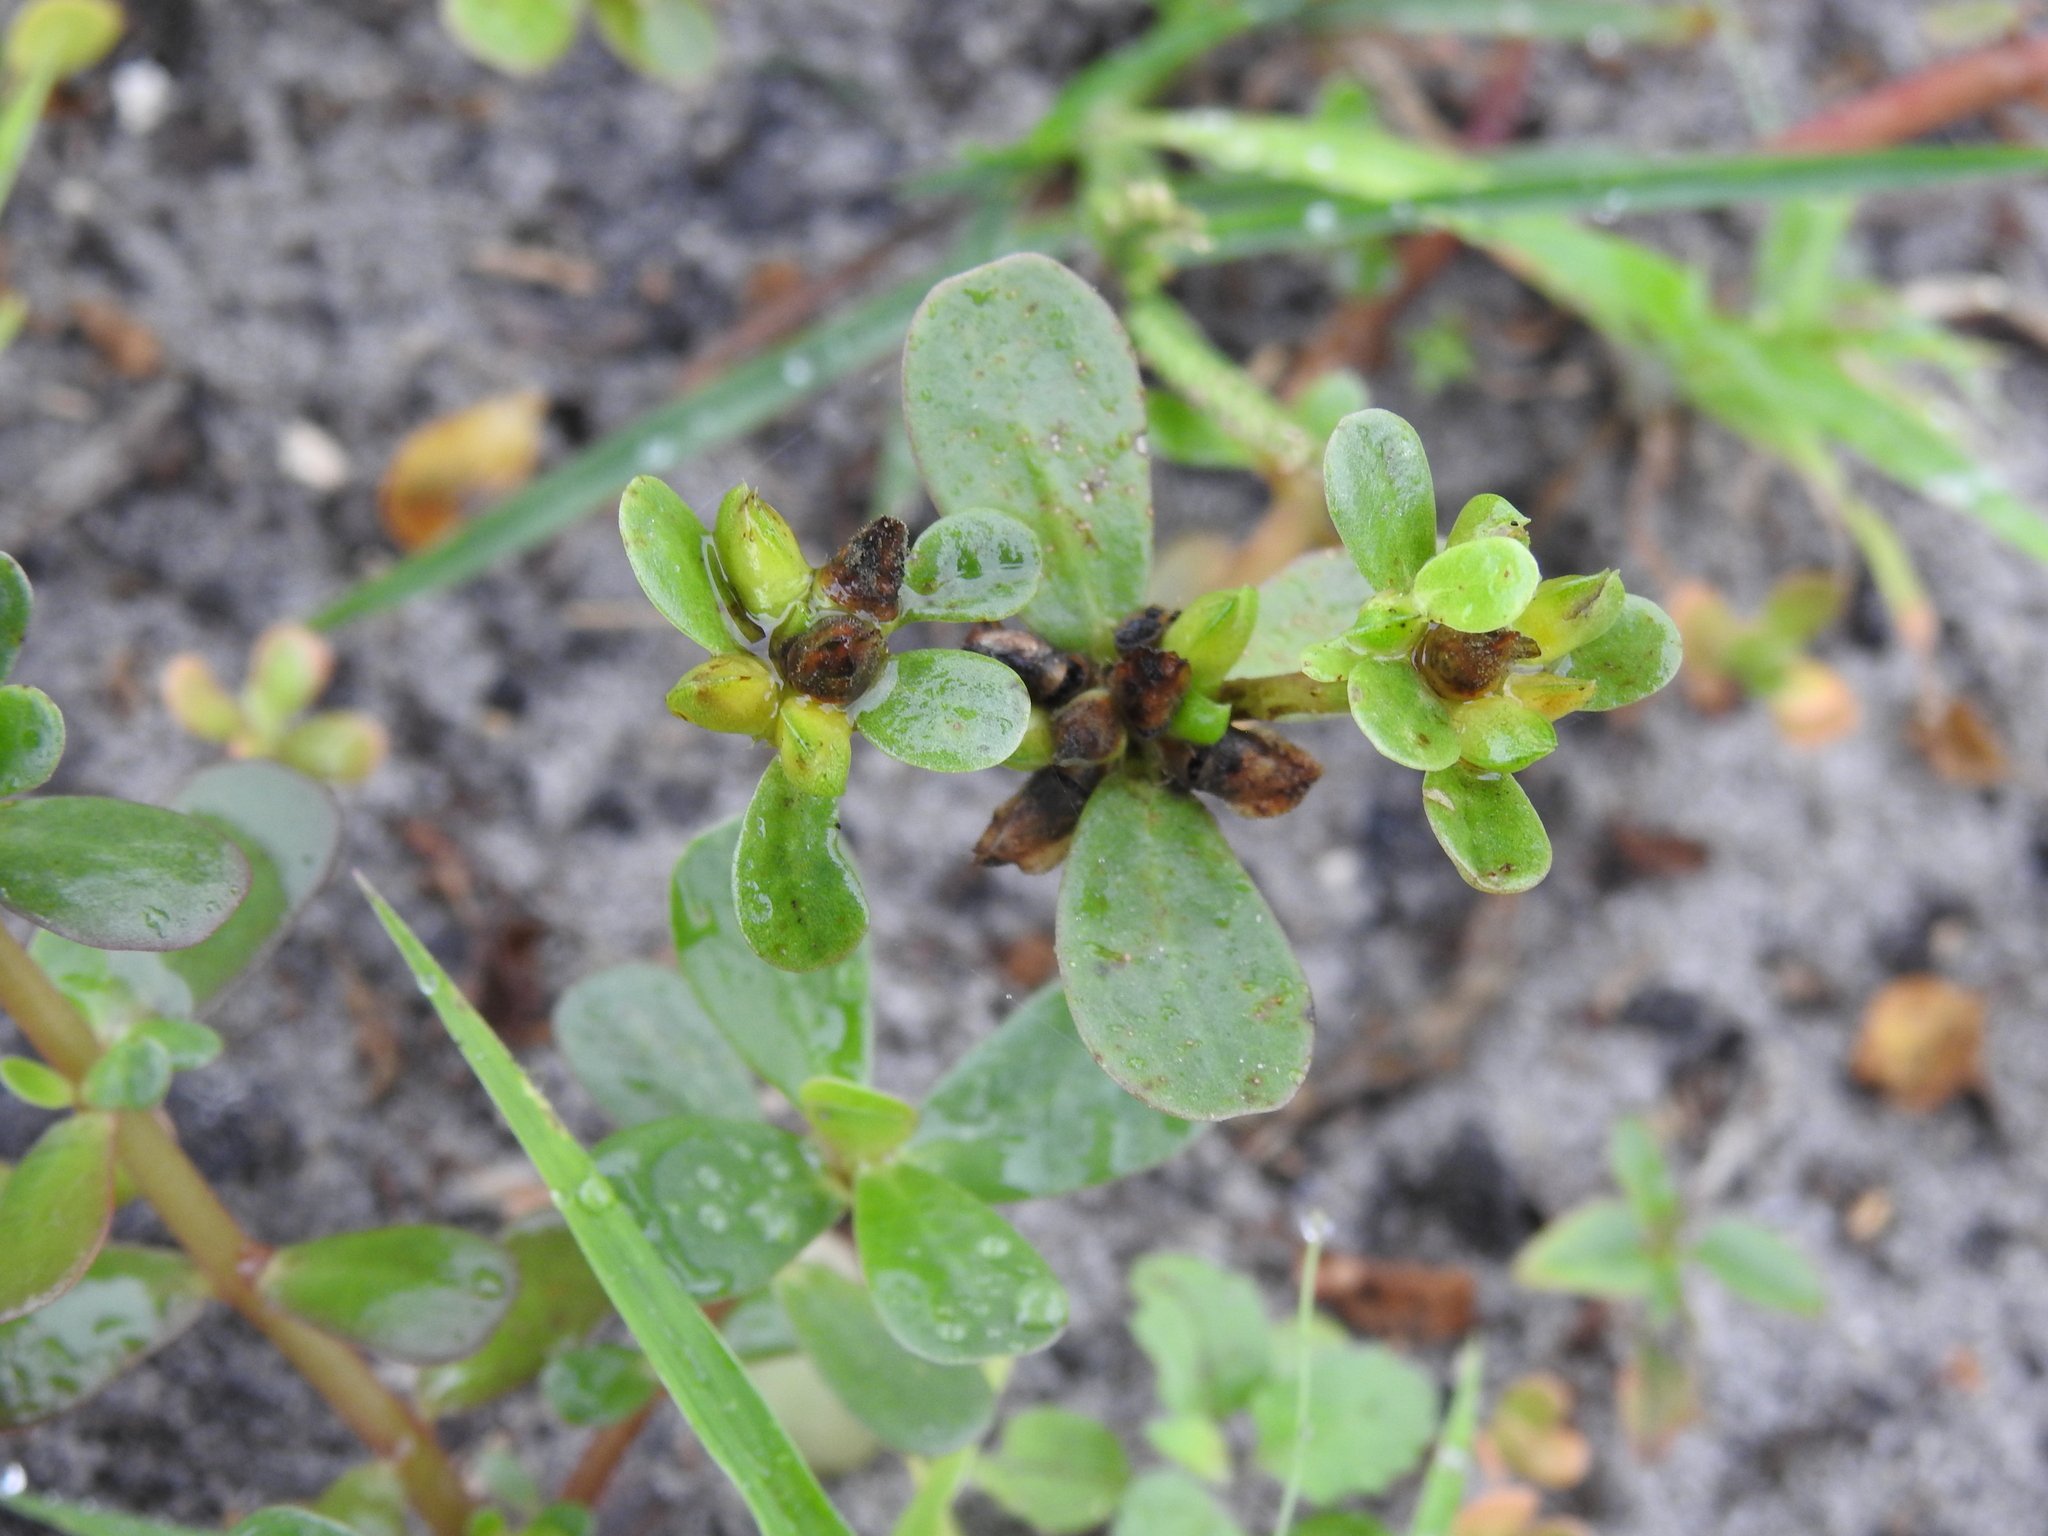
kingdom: Plantae
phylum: Tracheophyta
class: Magnoliopsida
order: Caryophyllales
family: Portulacaceae
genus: Portulaca
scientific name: Portulaca oleracea
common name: Common purslane
